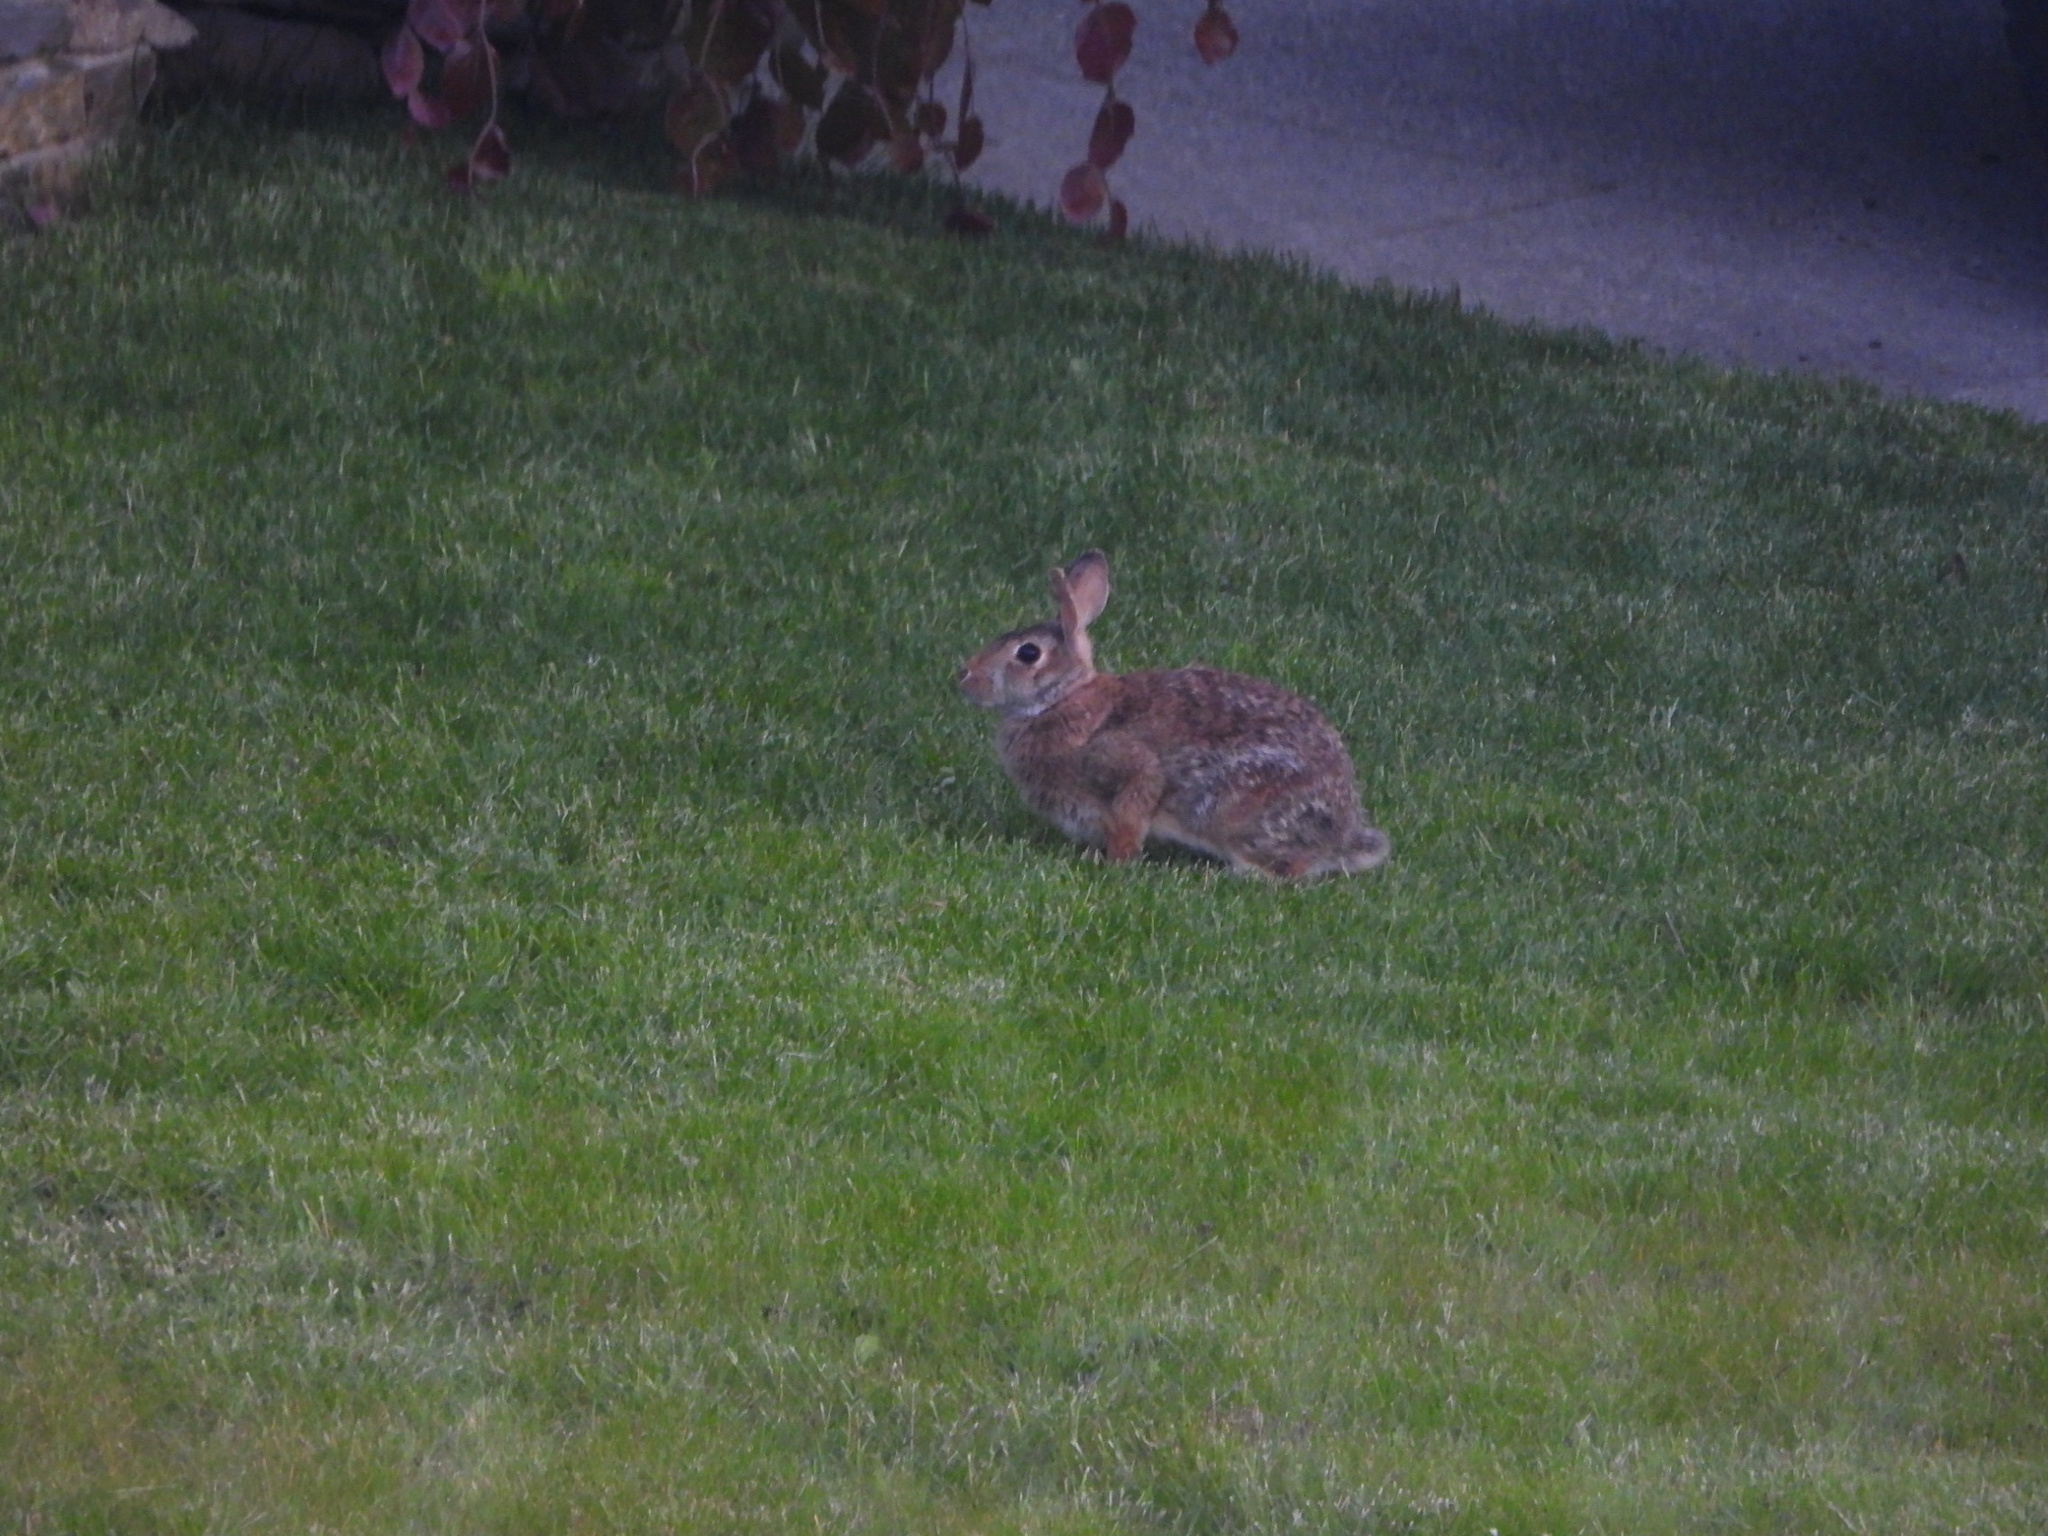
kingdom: Animalia
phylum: Chordata
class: Mammalia
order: Lagomorpha
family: Leporidae
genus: Sylvilagus
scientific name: Sylvilagus floridanus
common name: Eastern cottontail
